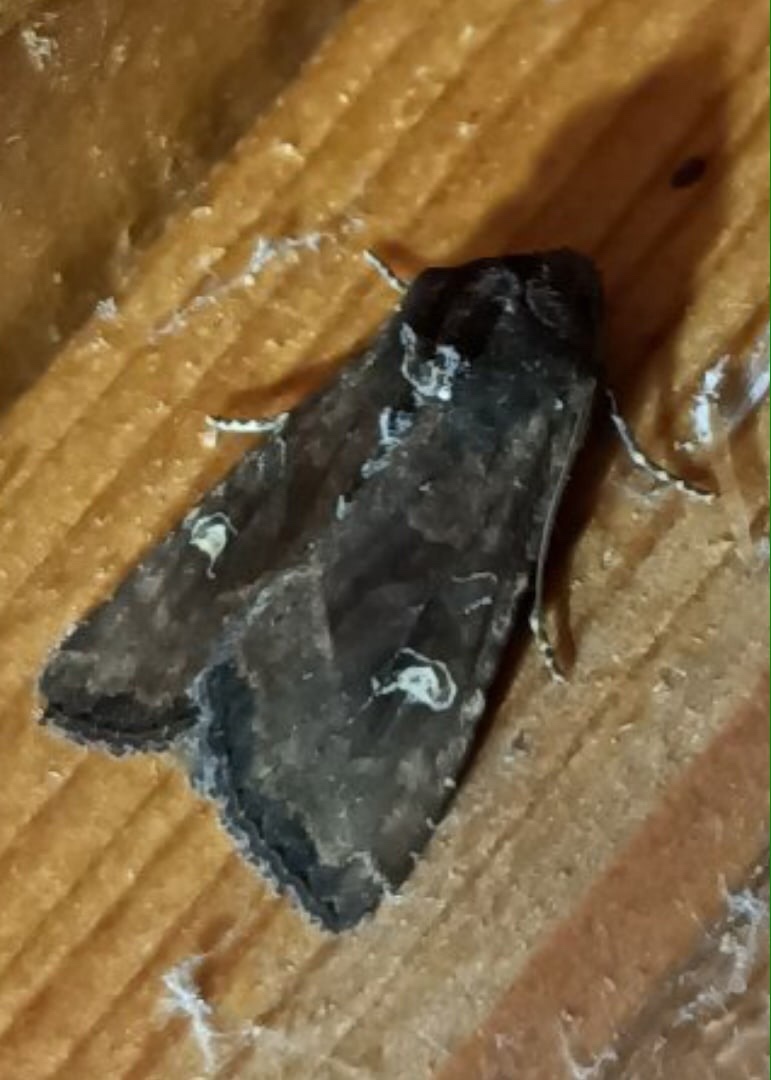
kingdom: Animalia
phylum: Arthropoda
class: Insecta
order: Lepidoptera
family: Noctuidae
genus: Helotropha
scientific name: Helotropha leucostigma
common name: The crescent
